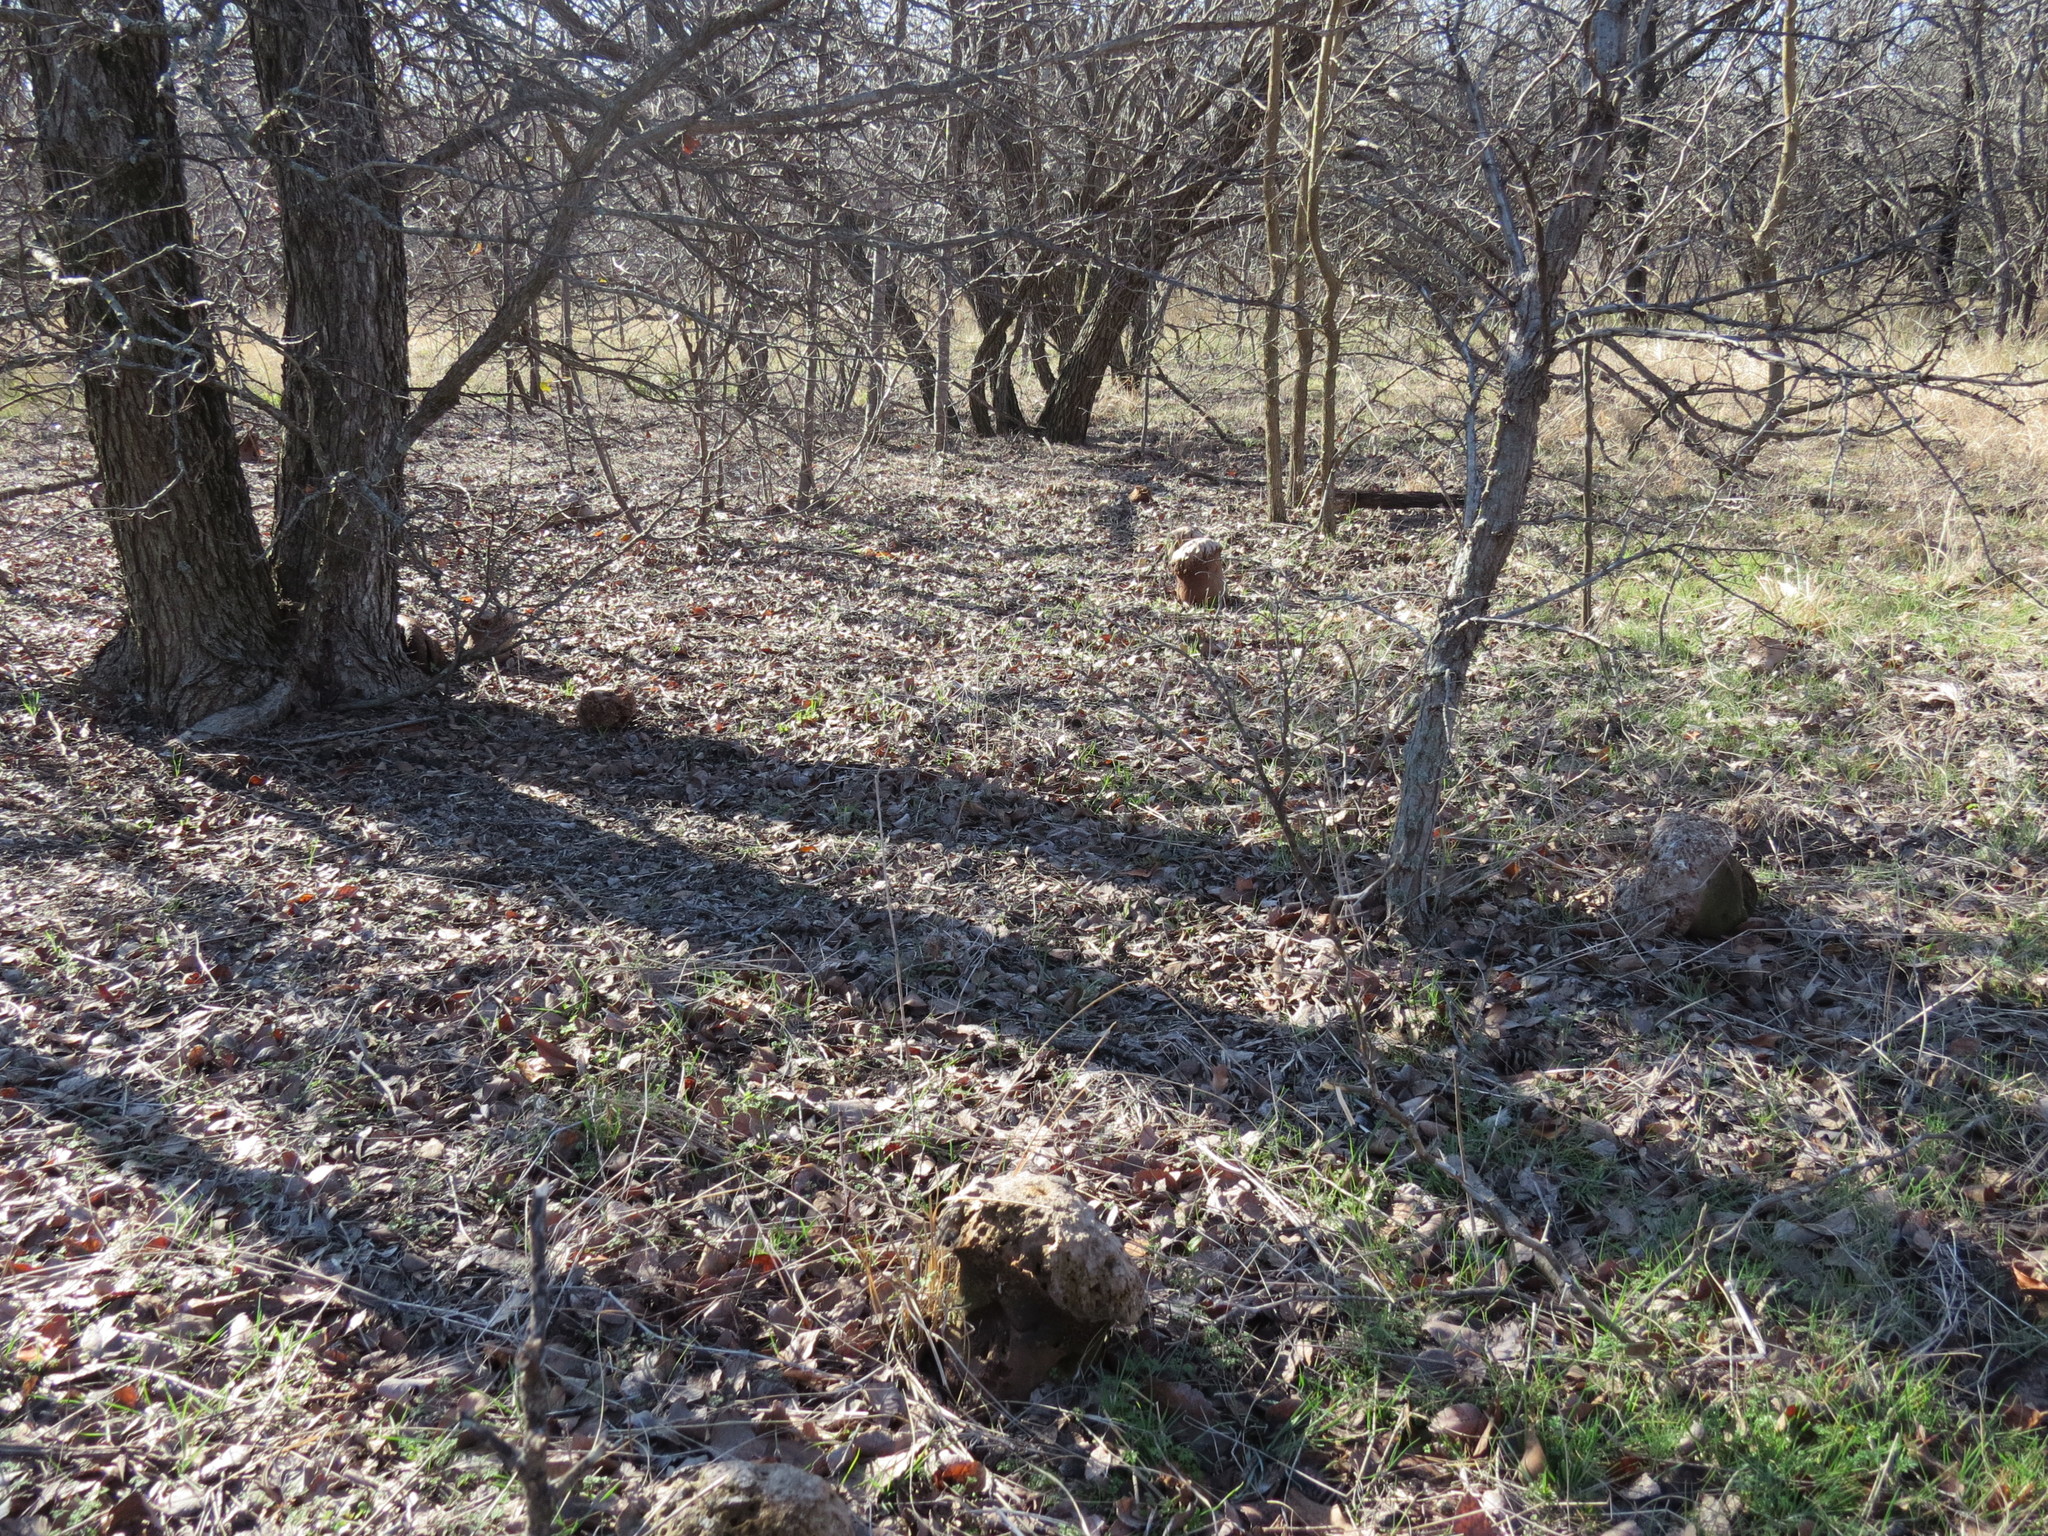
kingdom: Fungi
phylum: Basidiomycota
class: Agaricomycetes
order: Agaricales
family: Lycoperdaceae
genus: Calvatia
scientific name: Calvatia craniiformis
